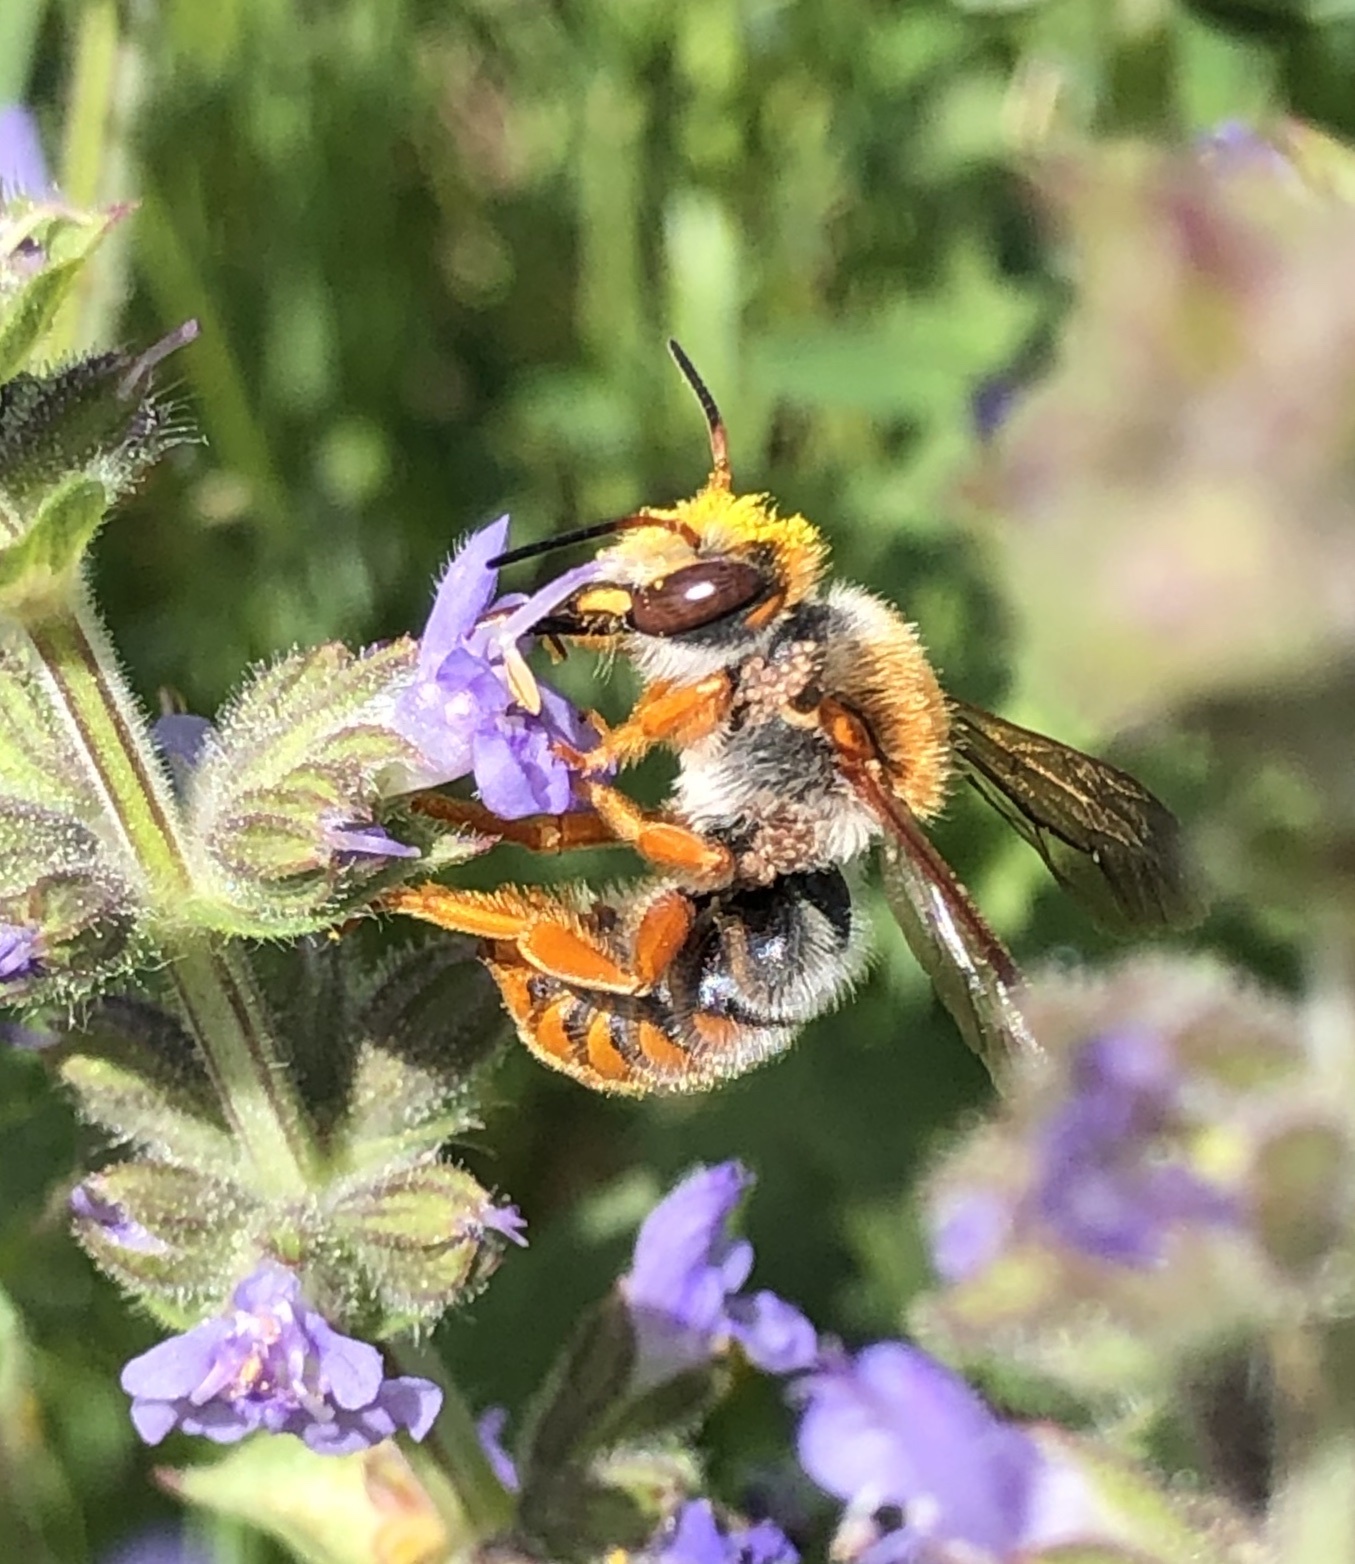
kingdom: Animalia
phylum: Arthropoda
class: Insecta
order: Hymenoptera
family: Megachilidae
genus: Rhodanthidium
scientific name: Rhodanthidium sticticum
